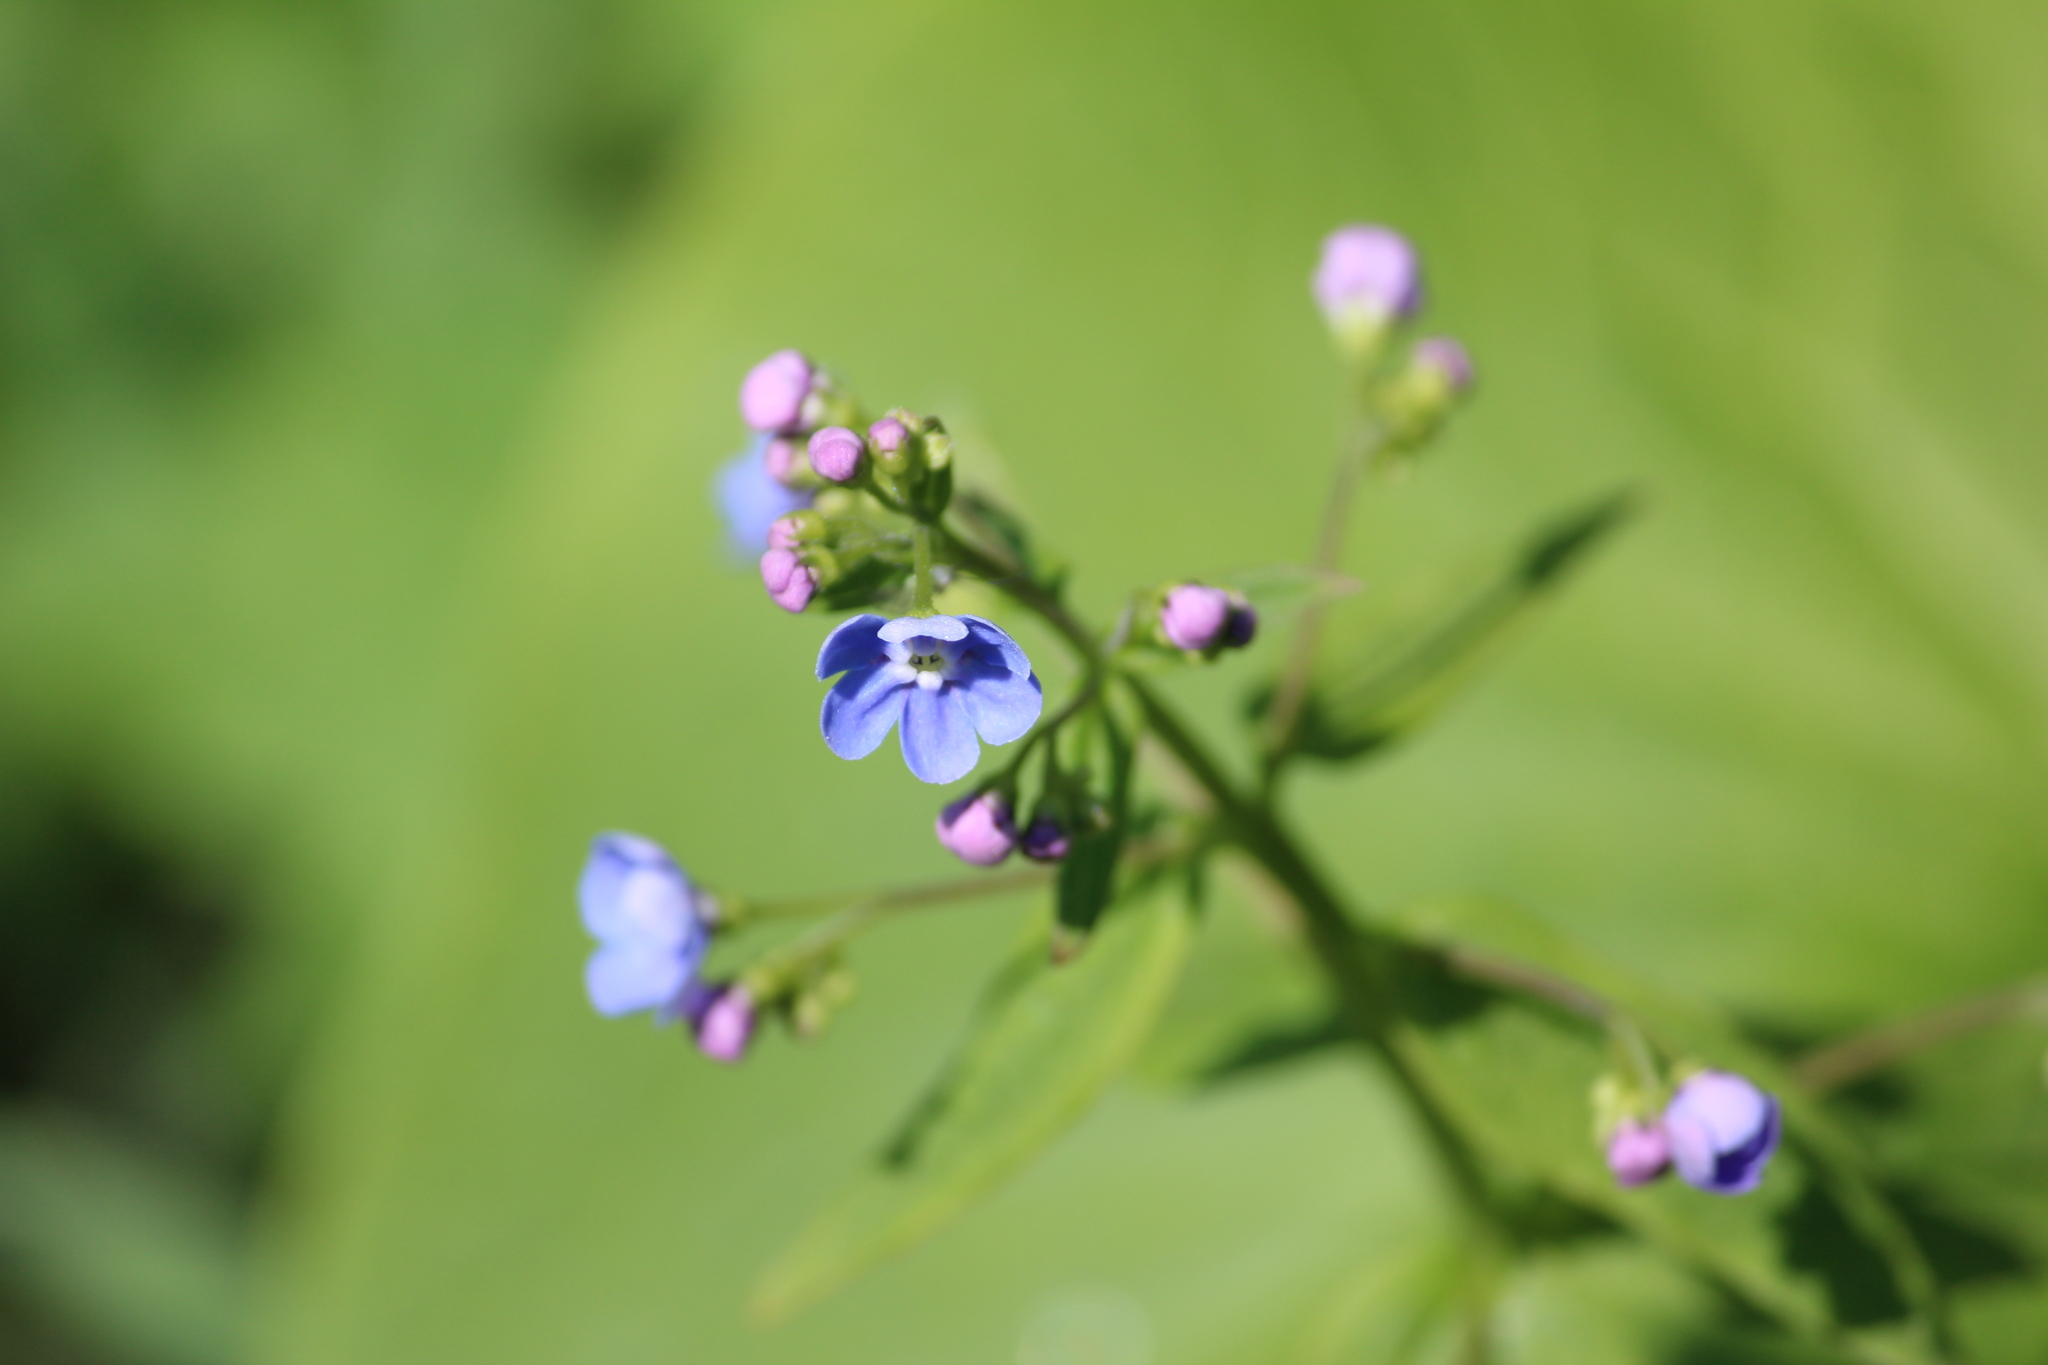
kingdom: Plantae
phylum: Tracheophyta
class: Magnoliopsida
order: Boraginales
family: Boraginaceae
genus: Brunnera
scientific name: Brunnera sibirica
